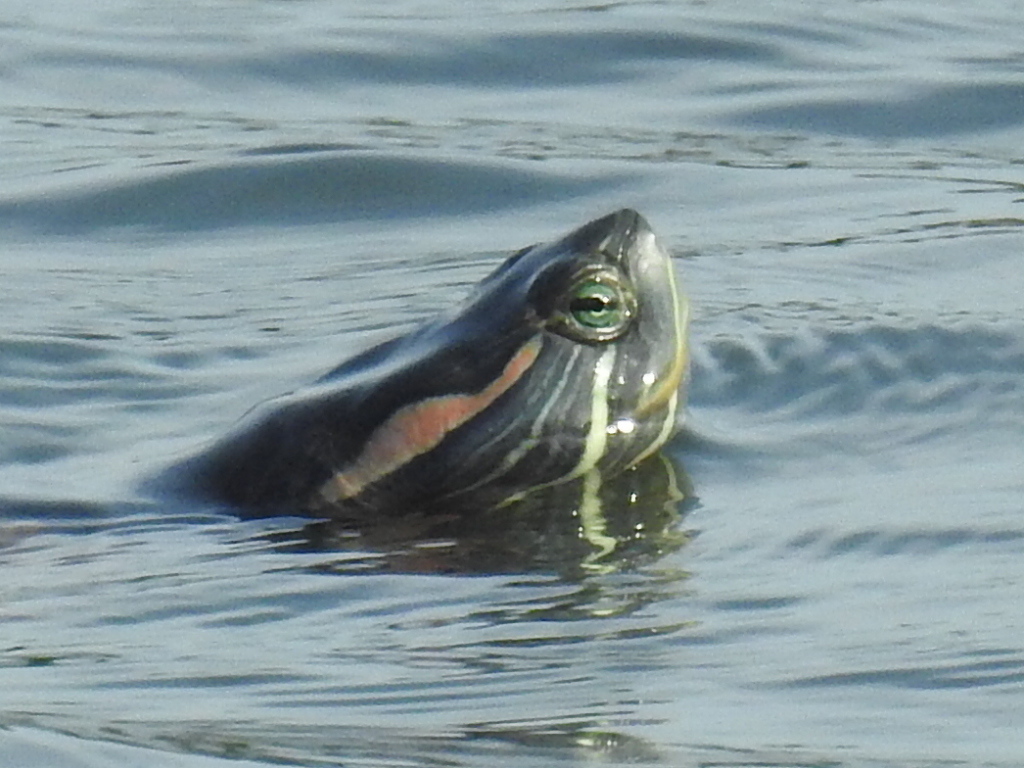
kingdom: Animalia
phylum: Chordata
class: Testudines
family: Emydidae
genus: Trachemys
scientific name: Trachemys scripta
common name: Slider
